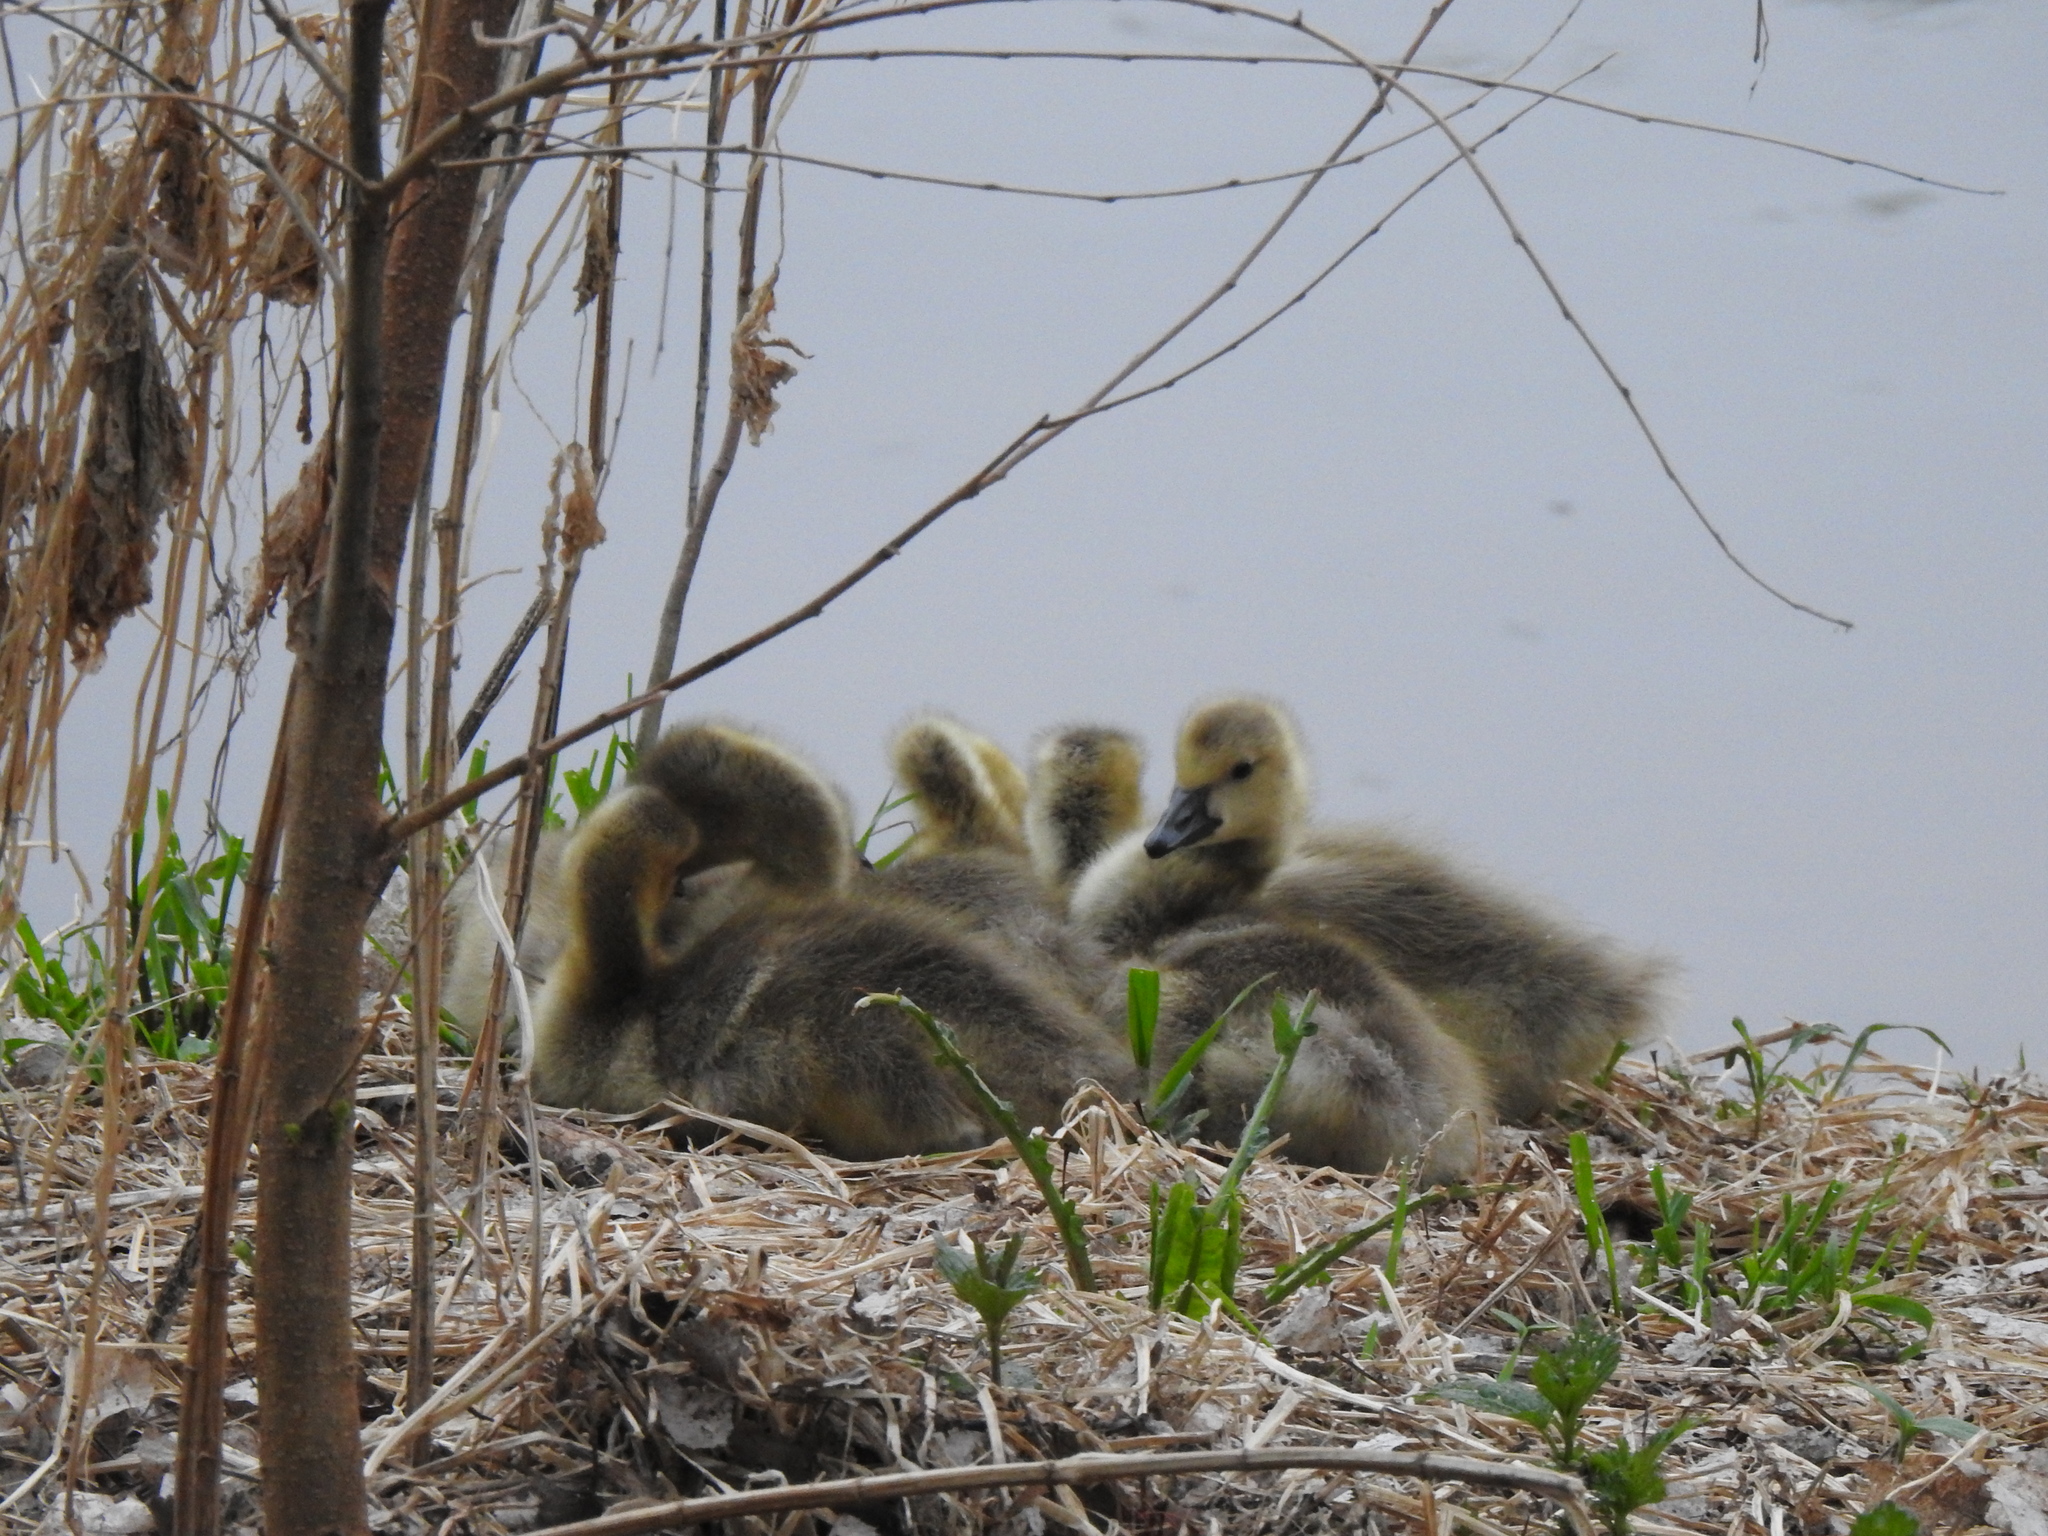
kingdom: Animalia
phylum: Chordata
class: Aves
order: Anseriformes
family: Anatidae
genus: Branta
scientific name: Branta canadensis
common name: Canada goose
